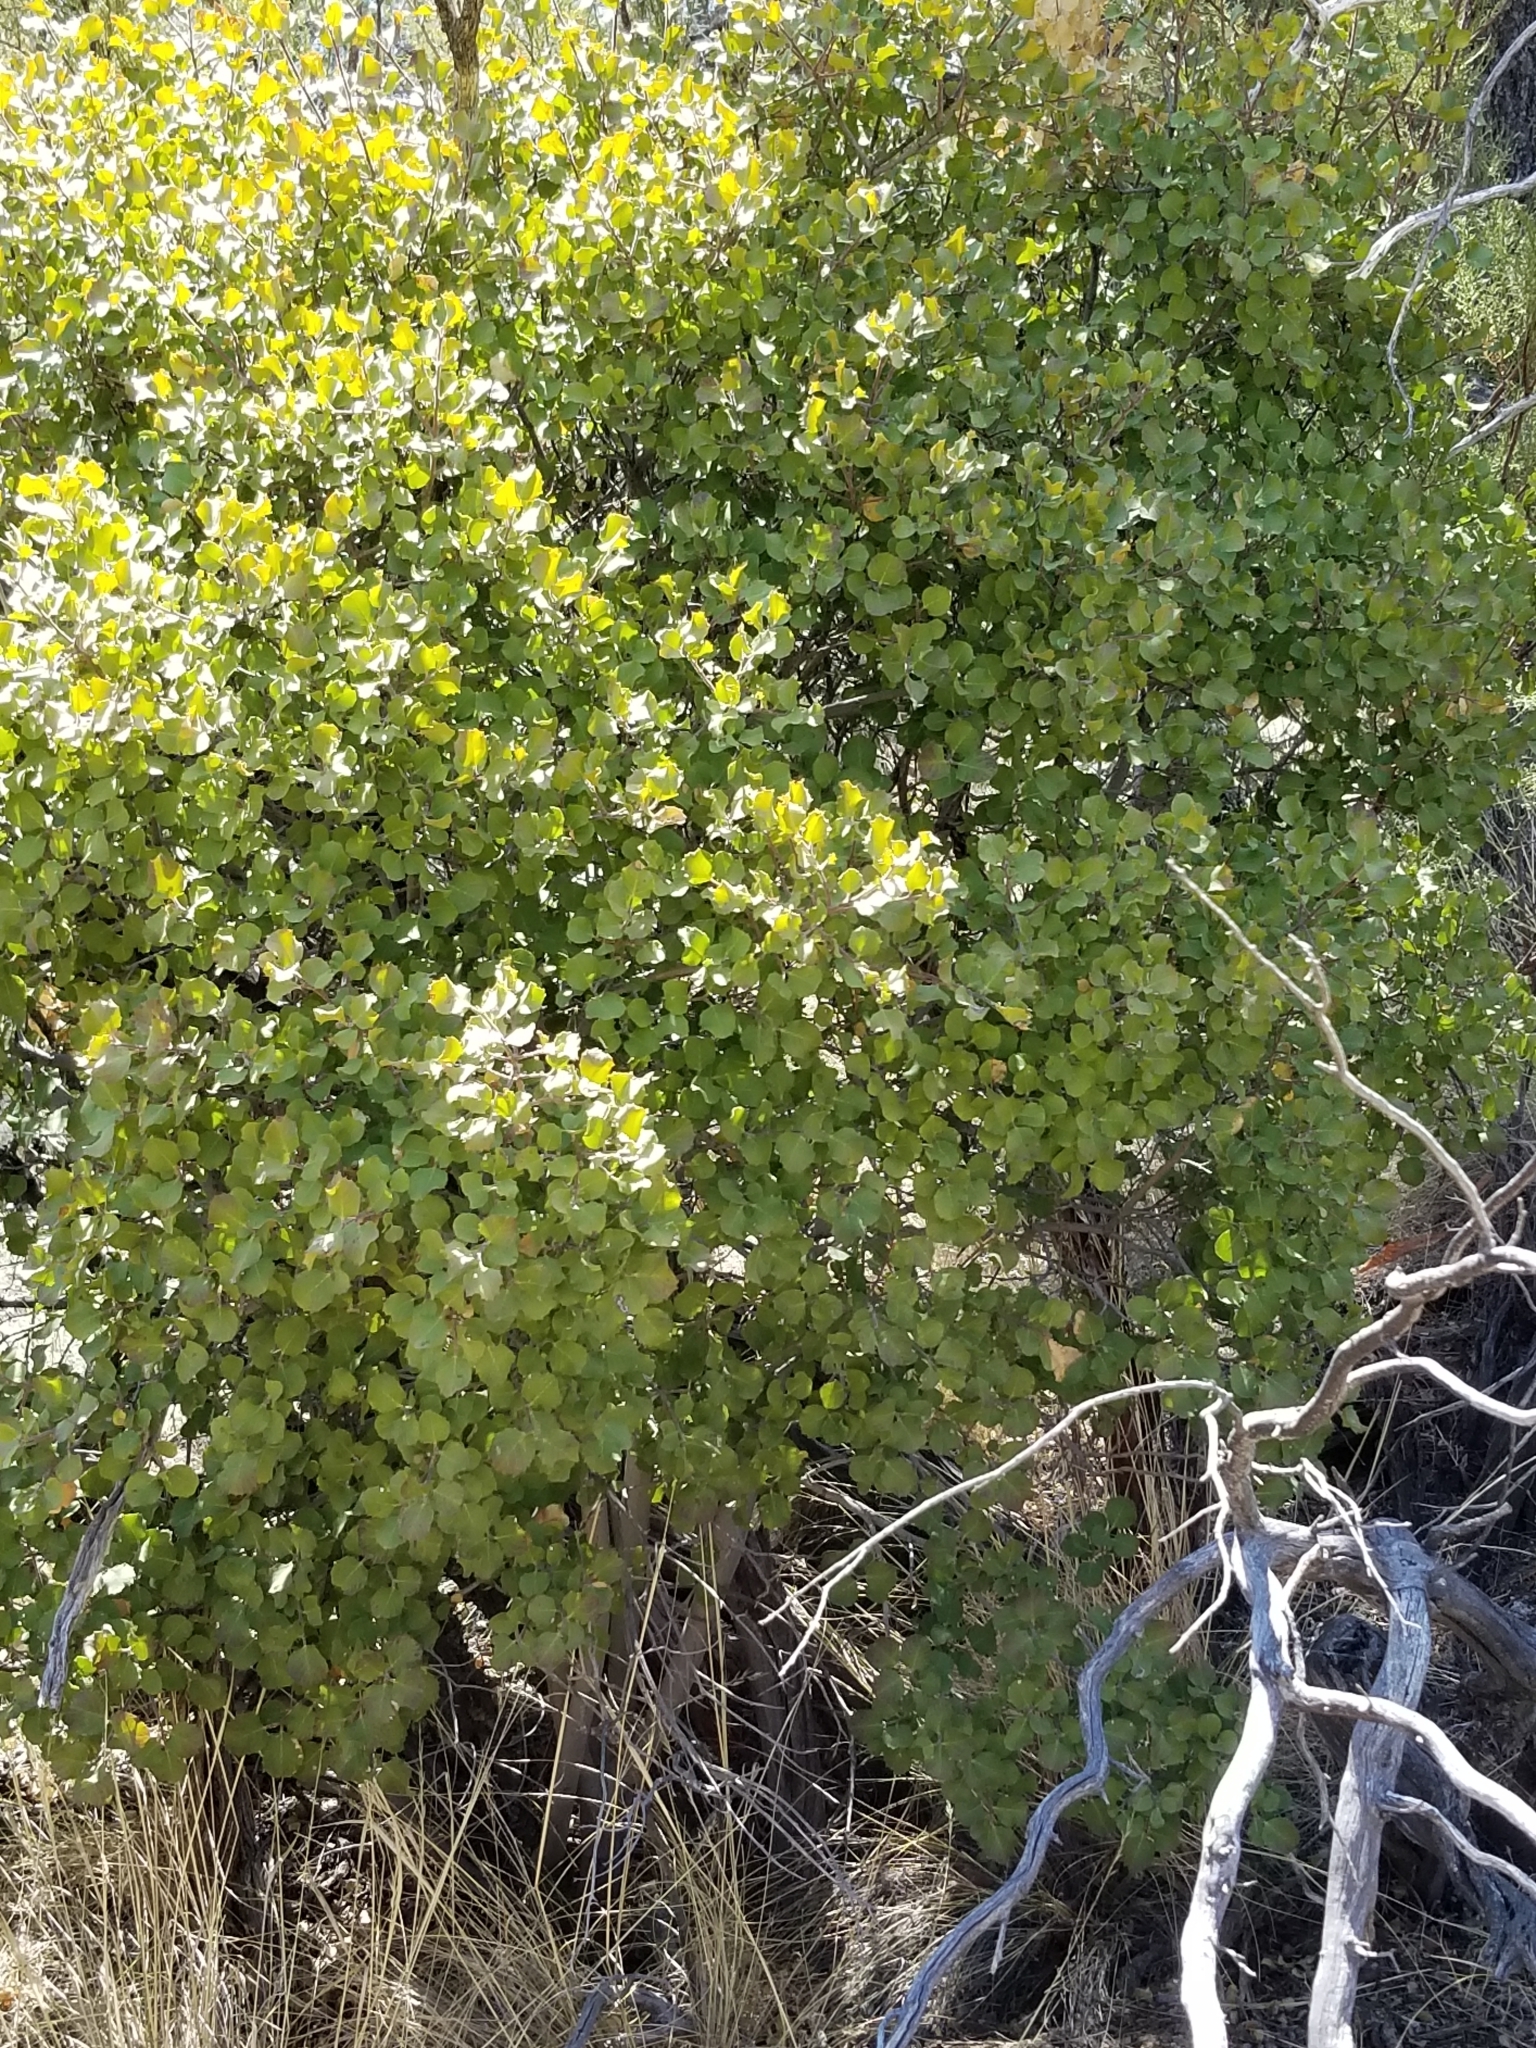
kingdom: Plantae
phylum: Tracheophyta
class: Magnoliopsida
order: Rosales
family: Rosaceae
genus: Prunus
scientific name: Prunus ilicifolia
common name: Hollyleaf cherry
